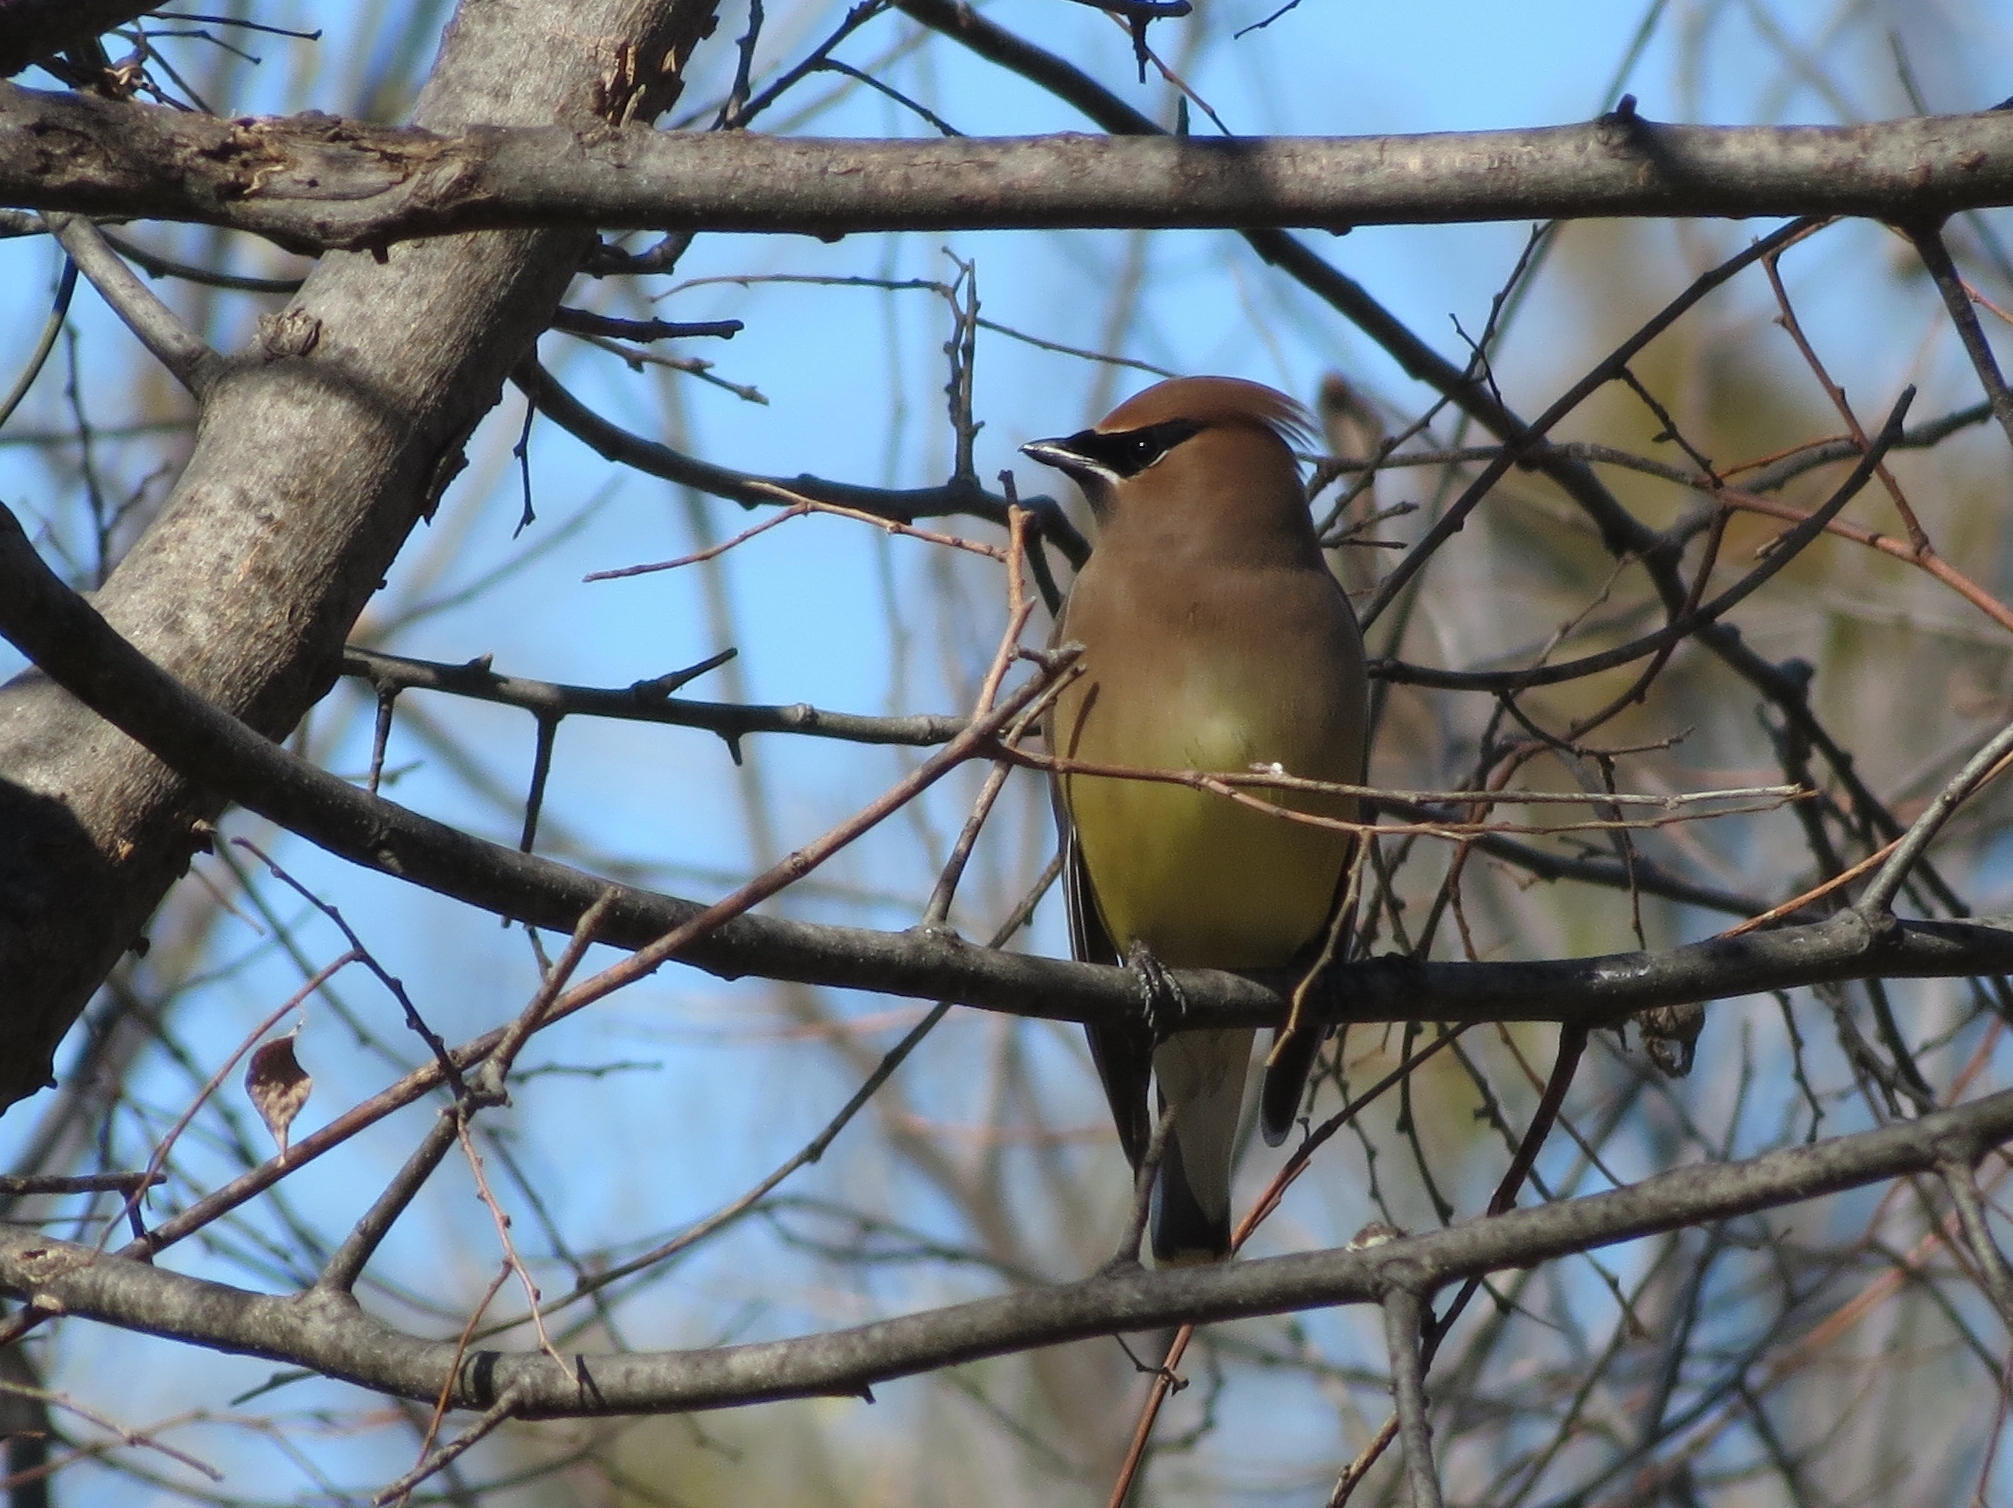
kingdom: Animalia
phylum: Chordata
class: Aves
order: Passeriformes
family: Bombycillidae
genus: Bombycilla
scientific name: Bombycilla cedrorum
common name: Cedar waxwing
